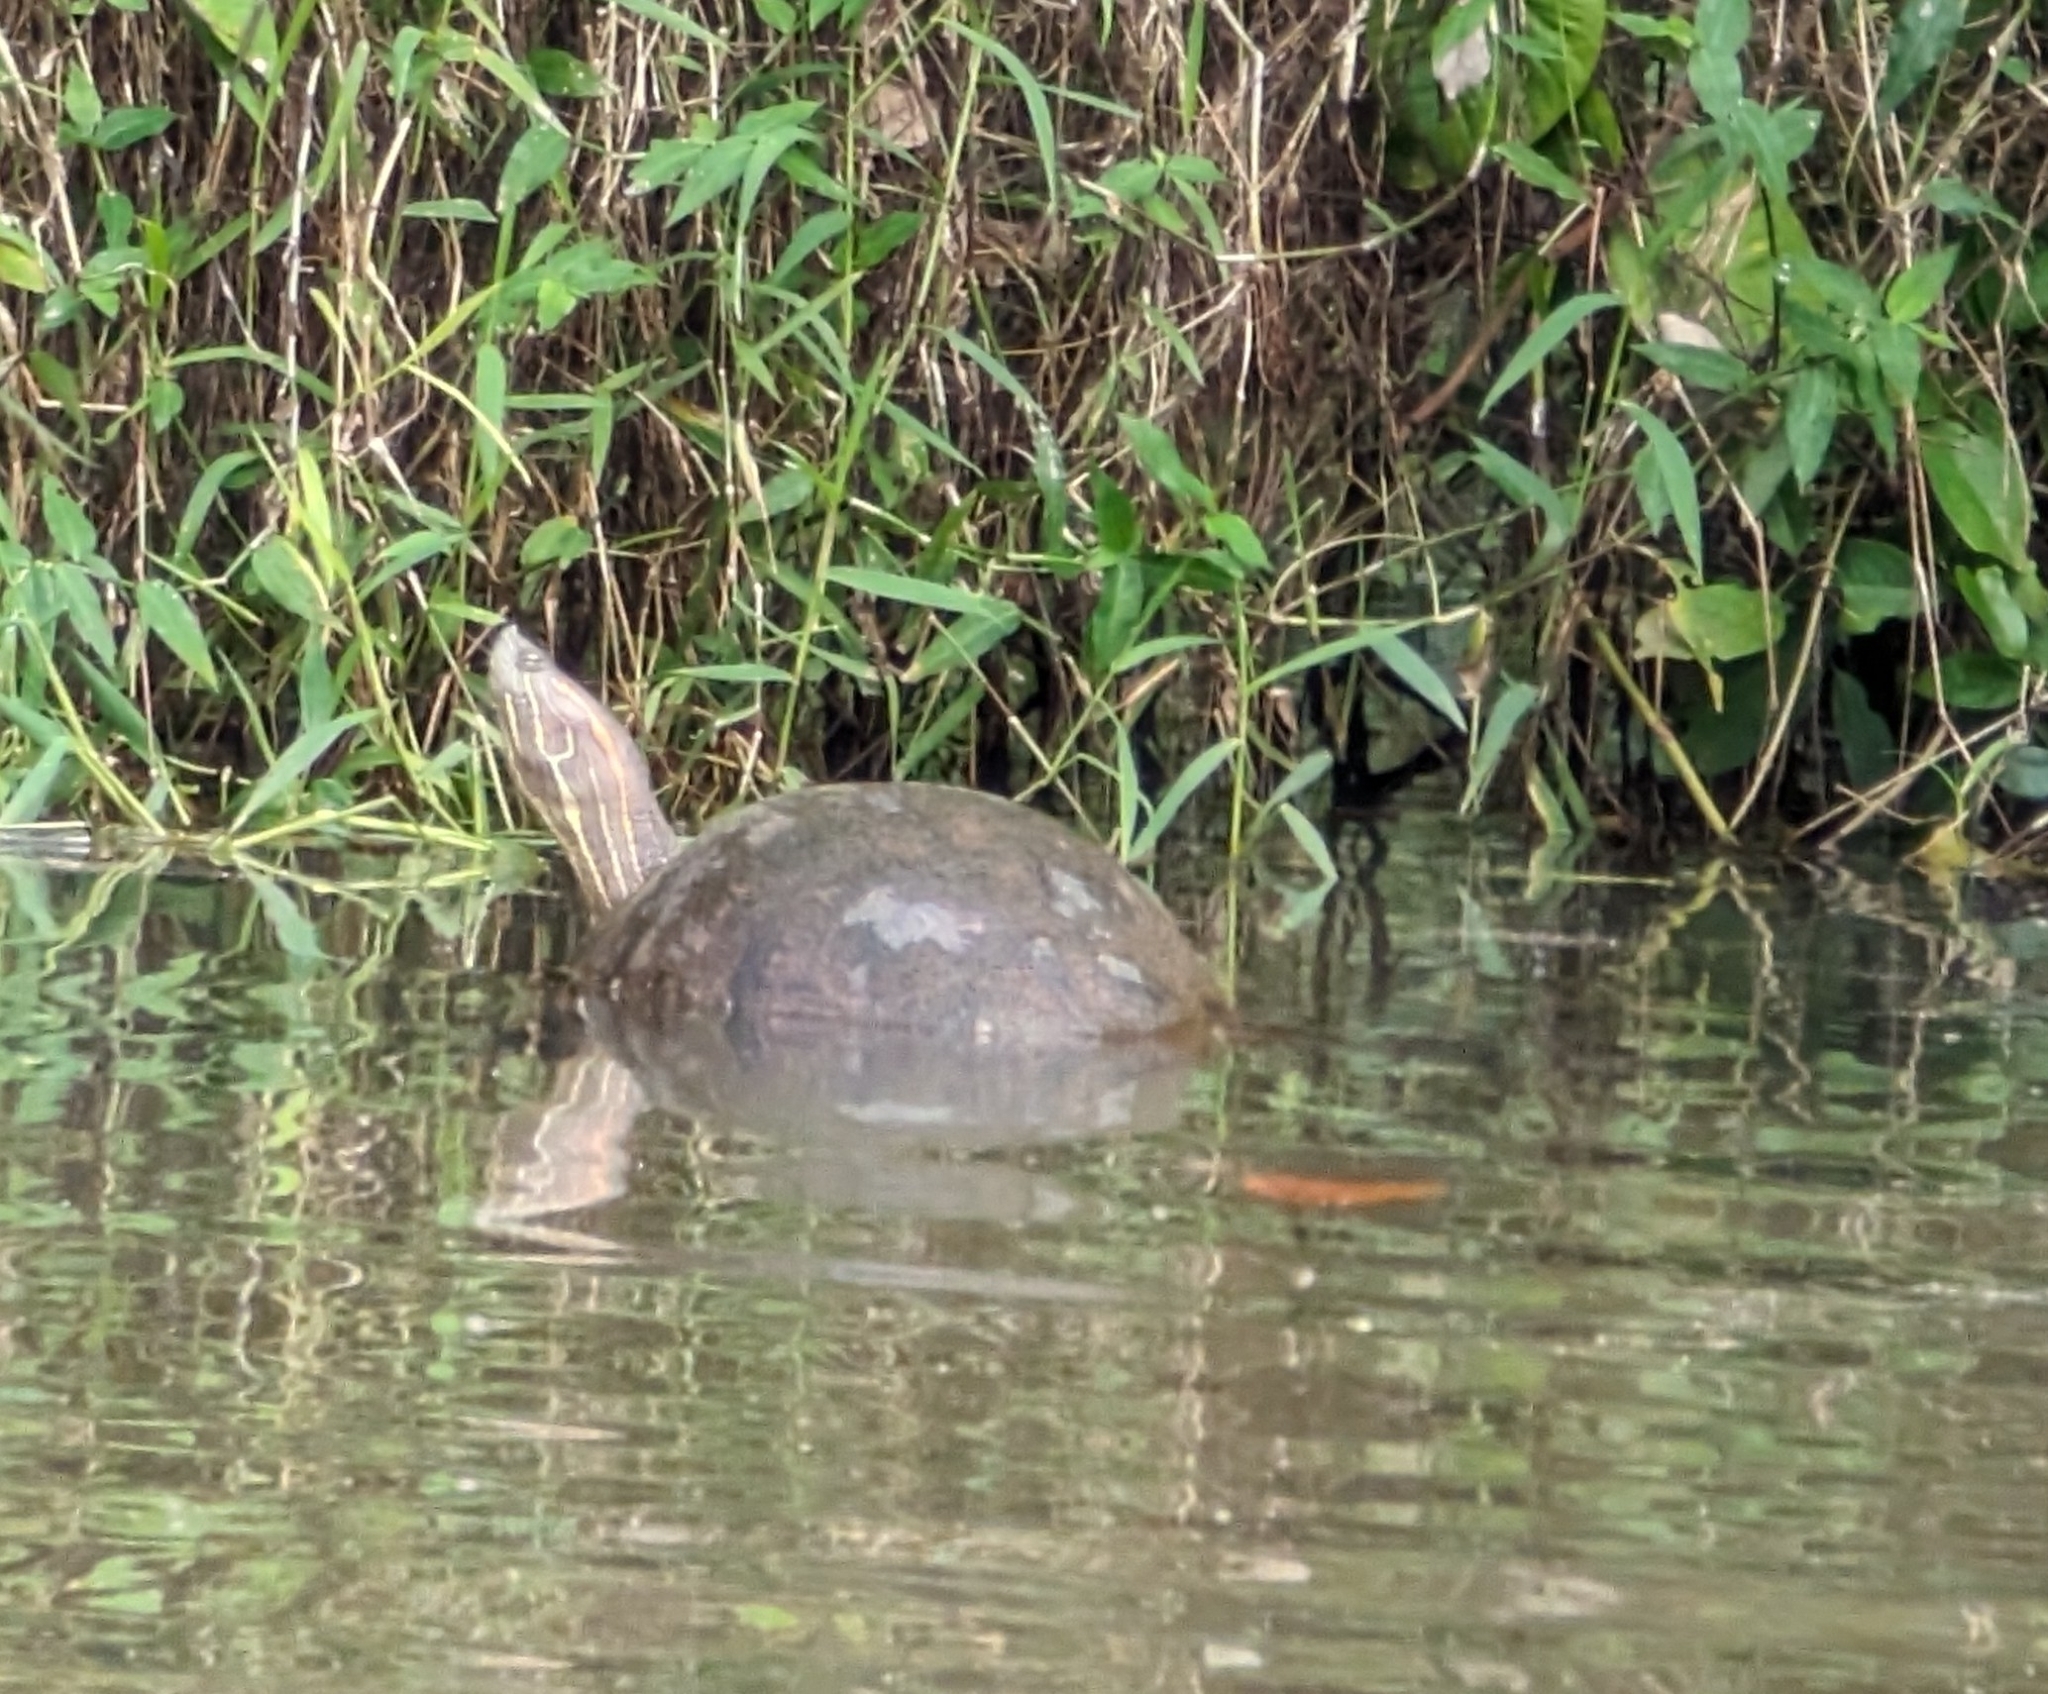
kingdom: Animalia
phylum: Chordata
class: Testudines
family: Emydidae
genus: Trachemys
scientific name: Trachemys grayi
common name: Gray's slider
